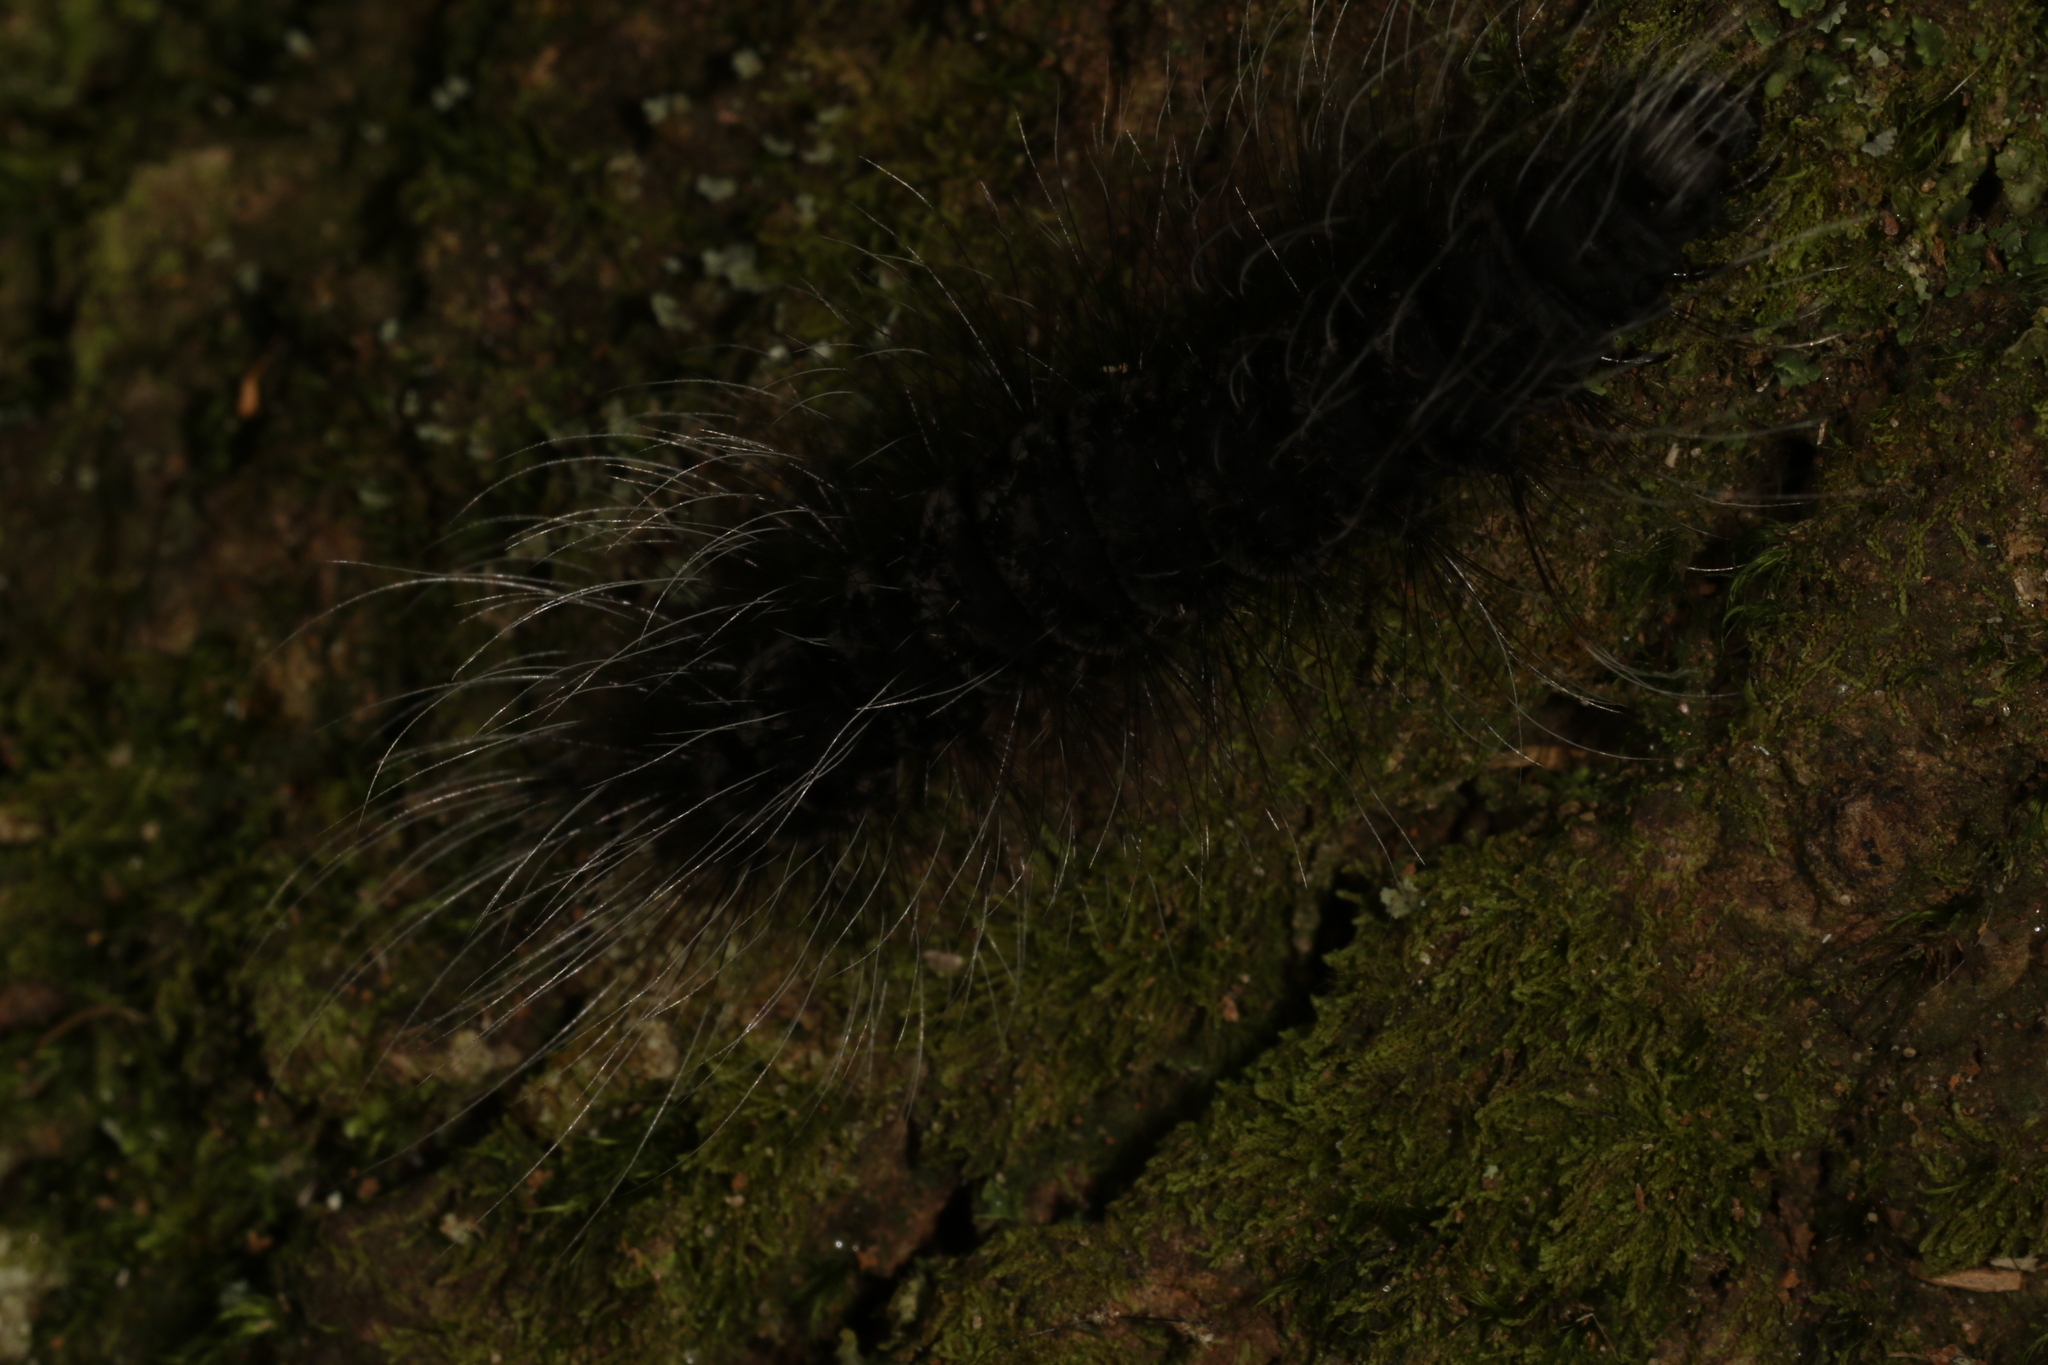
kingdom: Animalia
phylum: Arthropoda
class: Insecta
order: Lepidoptera
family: Erebidae
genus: Apistosia
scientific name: Apistosia judas
